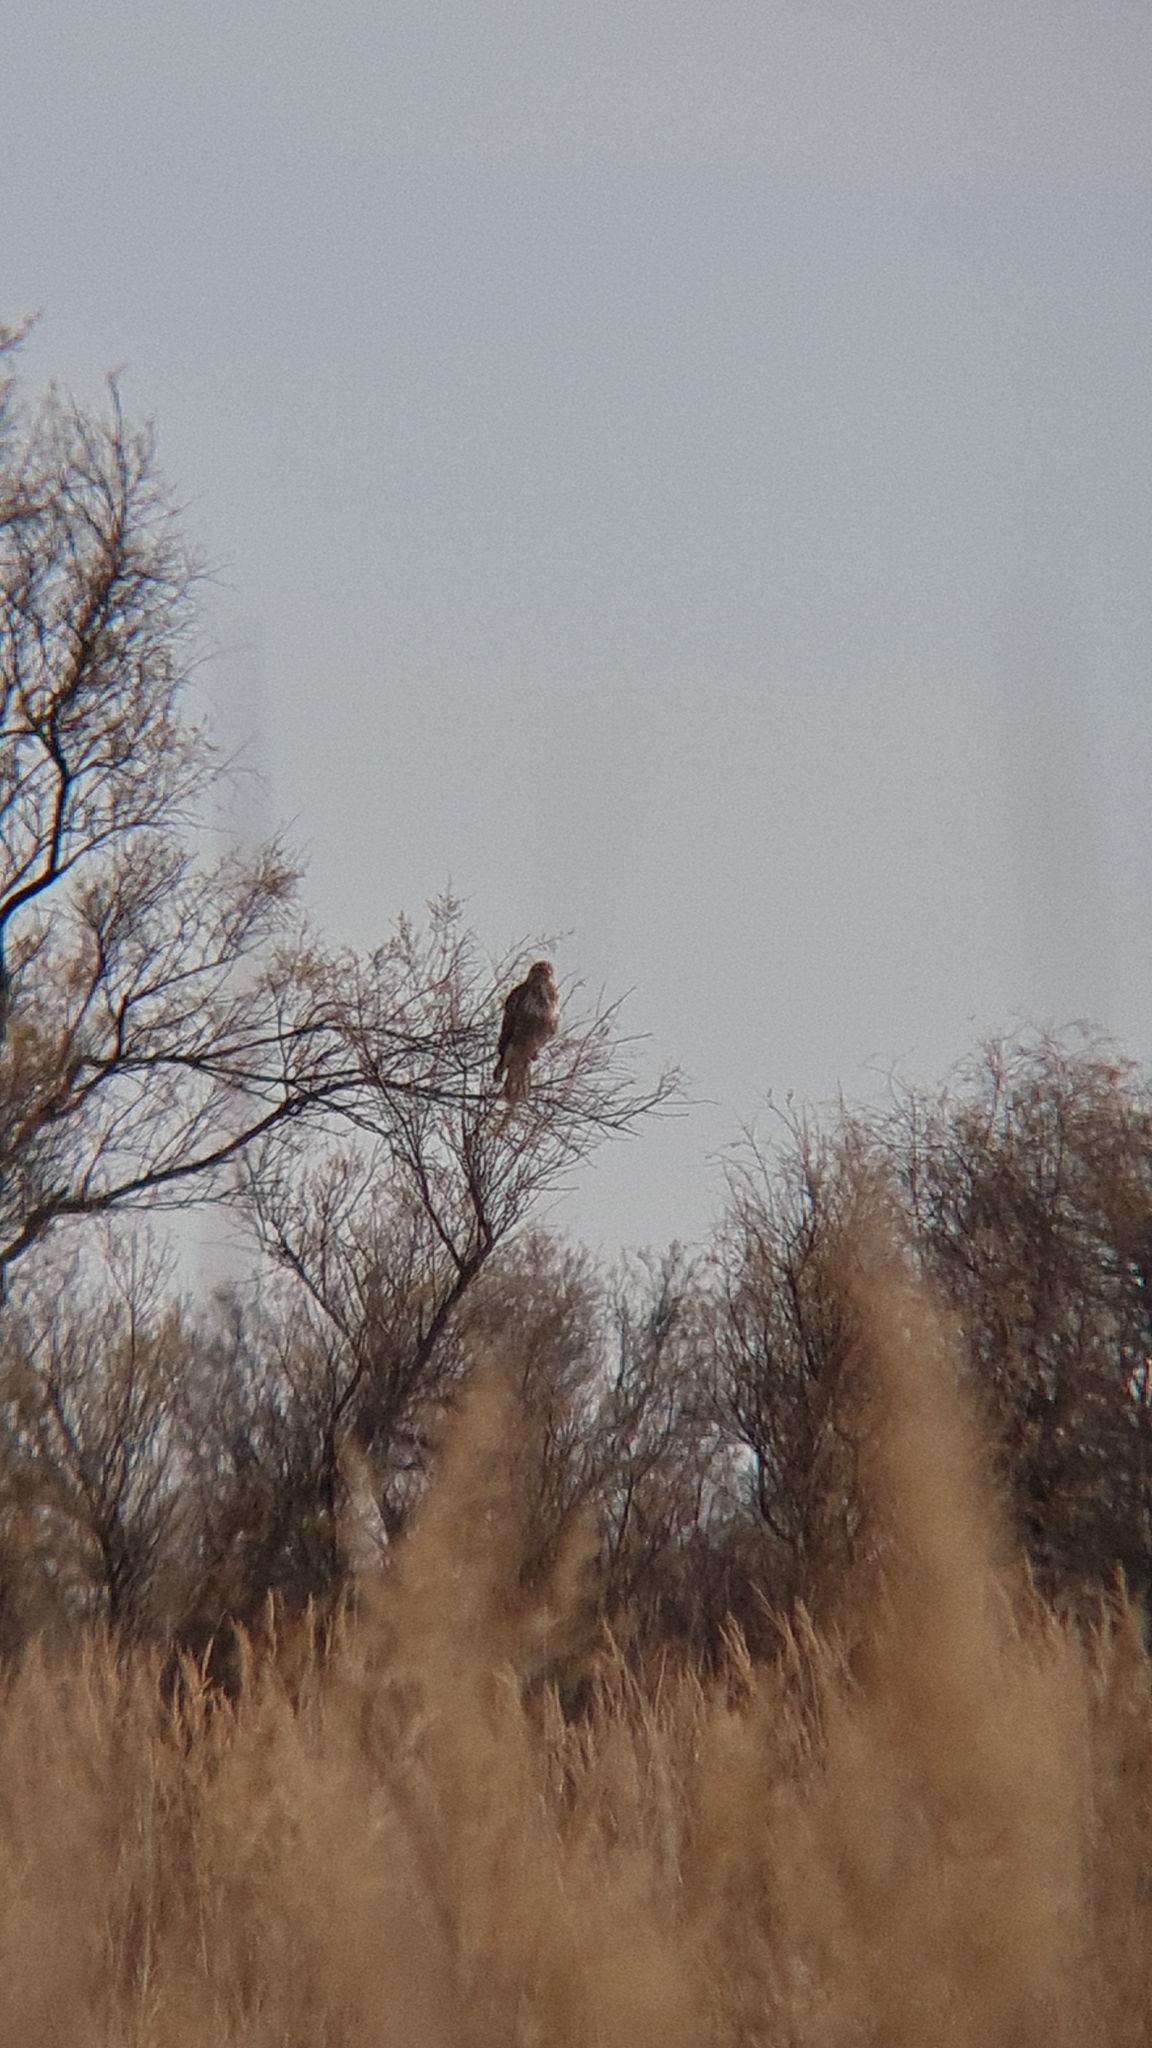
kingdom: Animalia
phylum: Chordata
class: Aves
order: Accipitriformes
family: Accipitridae
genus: Buteo
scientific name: Buteo buteo
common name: Common buzzard
